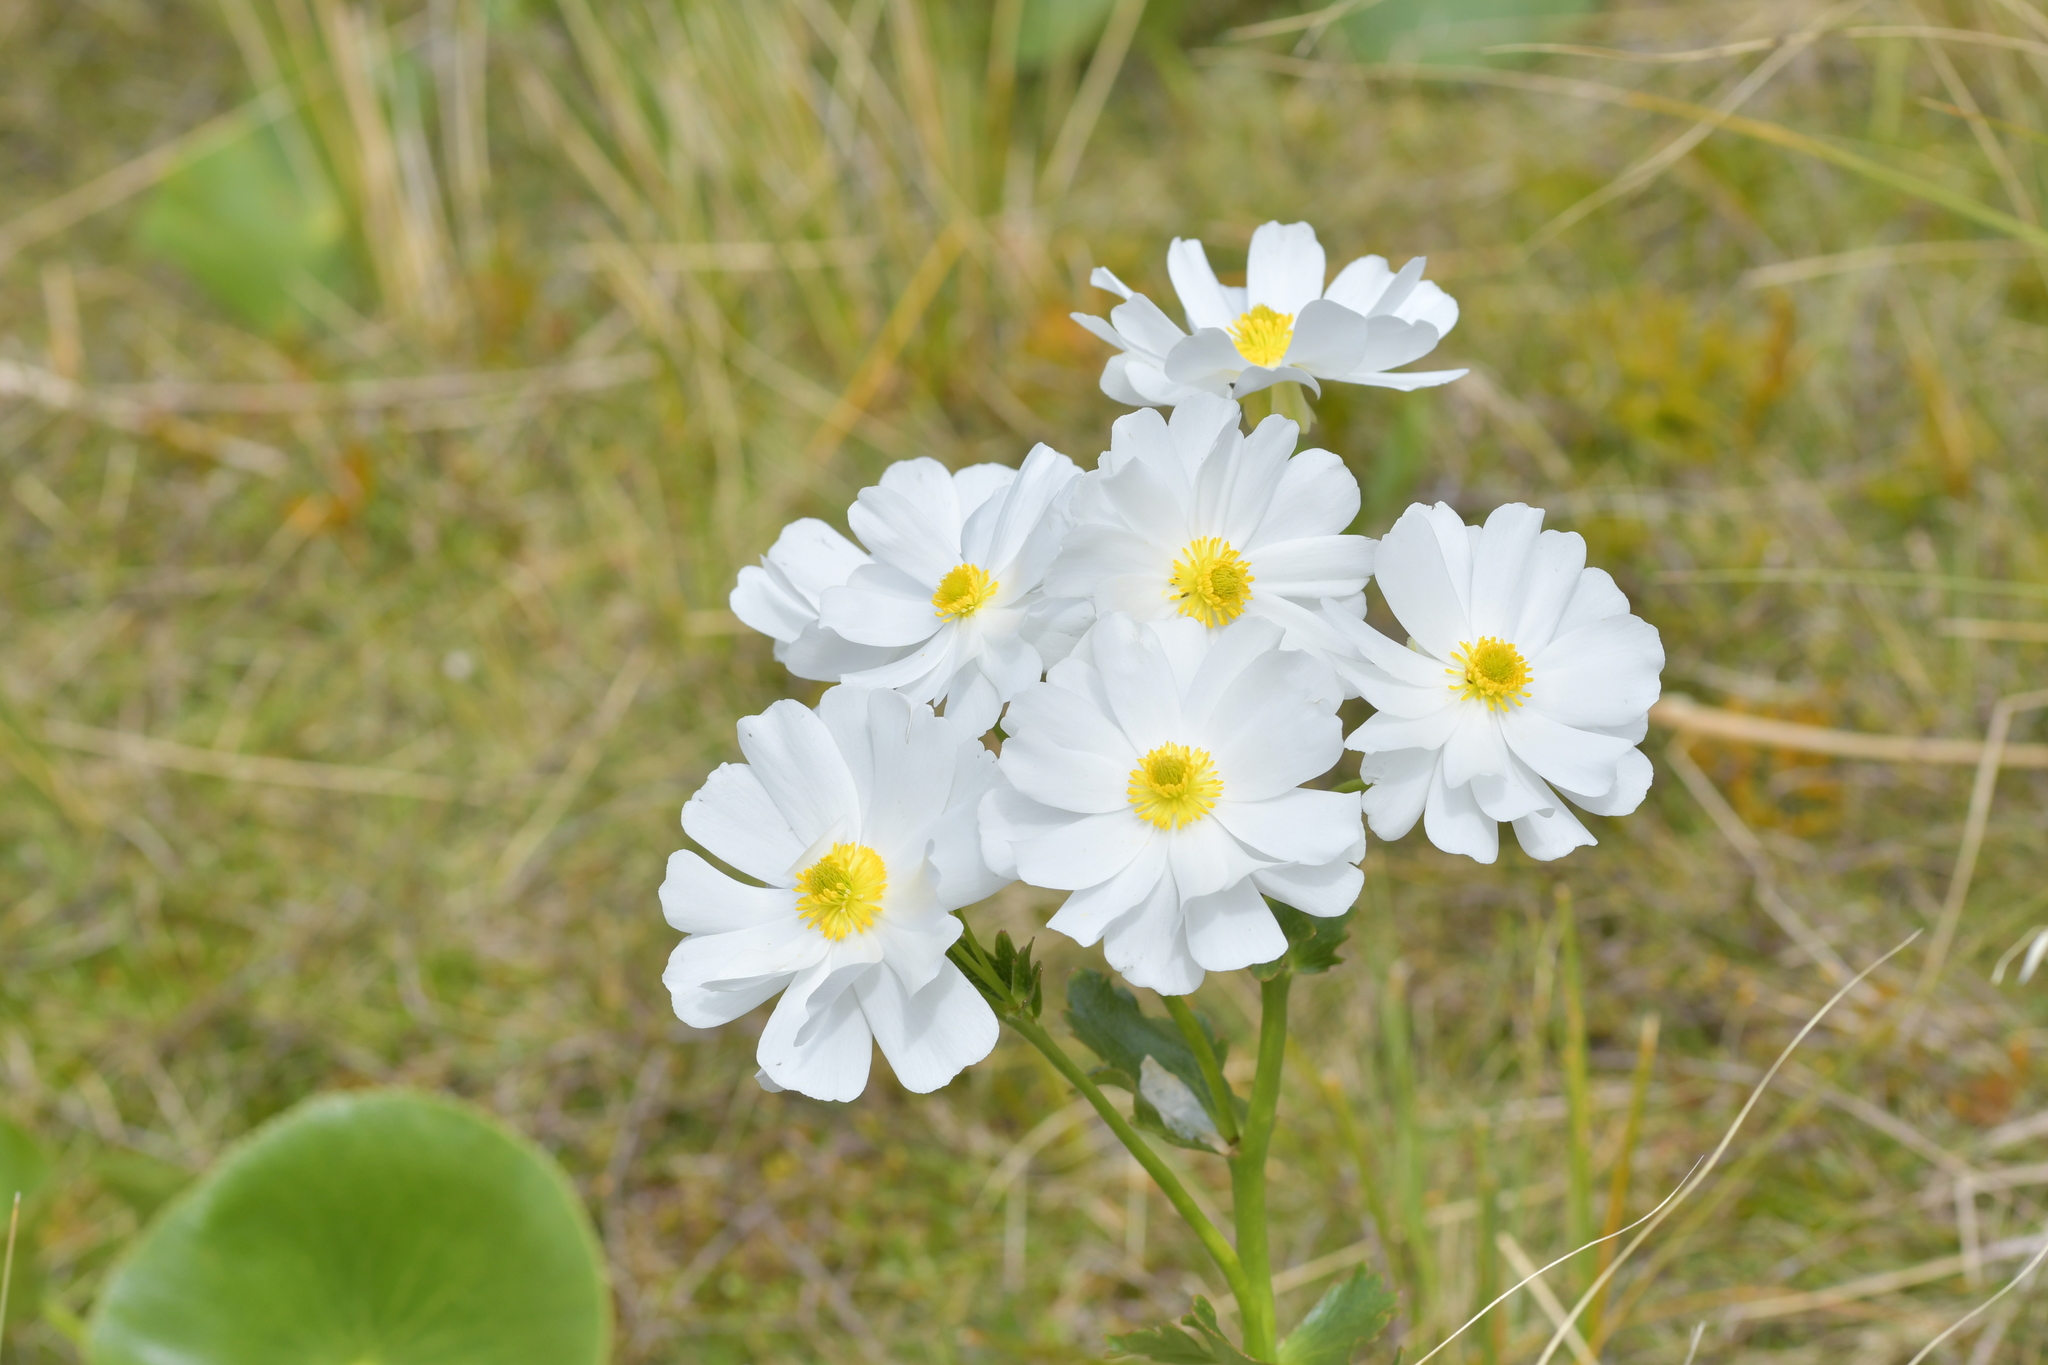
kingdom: Plantae
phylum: Tracheophyta
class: Magnoliopsida
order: Ranunculales
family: Ranunculaceae
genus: Ranunculus
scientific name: Ranunculus lyallii
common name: Mountain-lily
